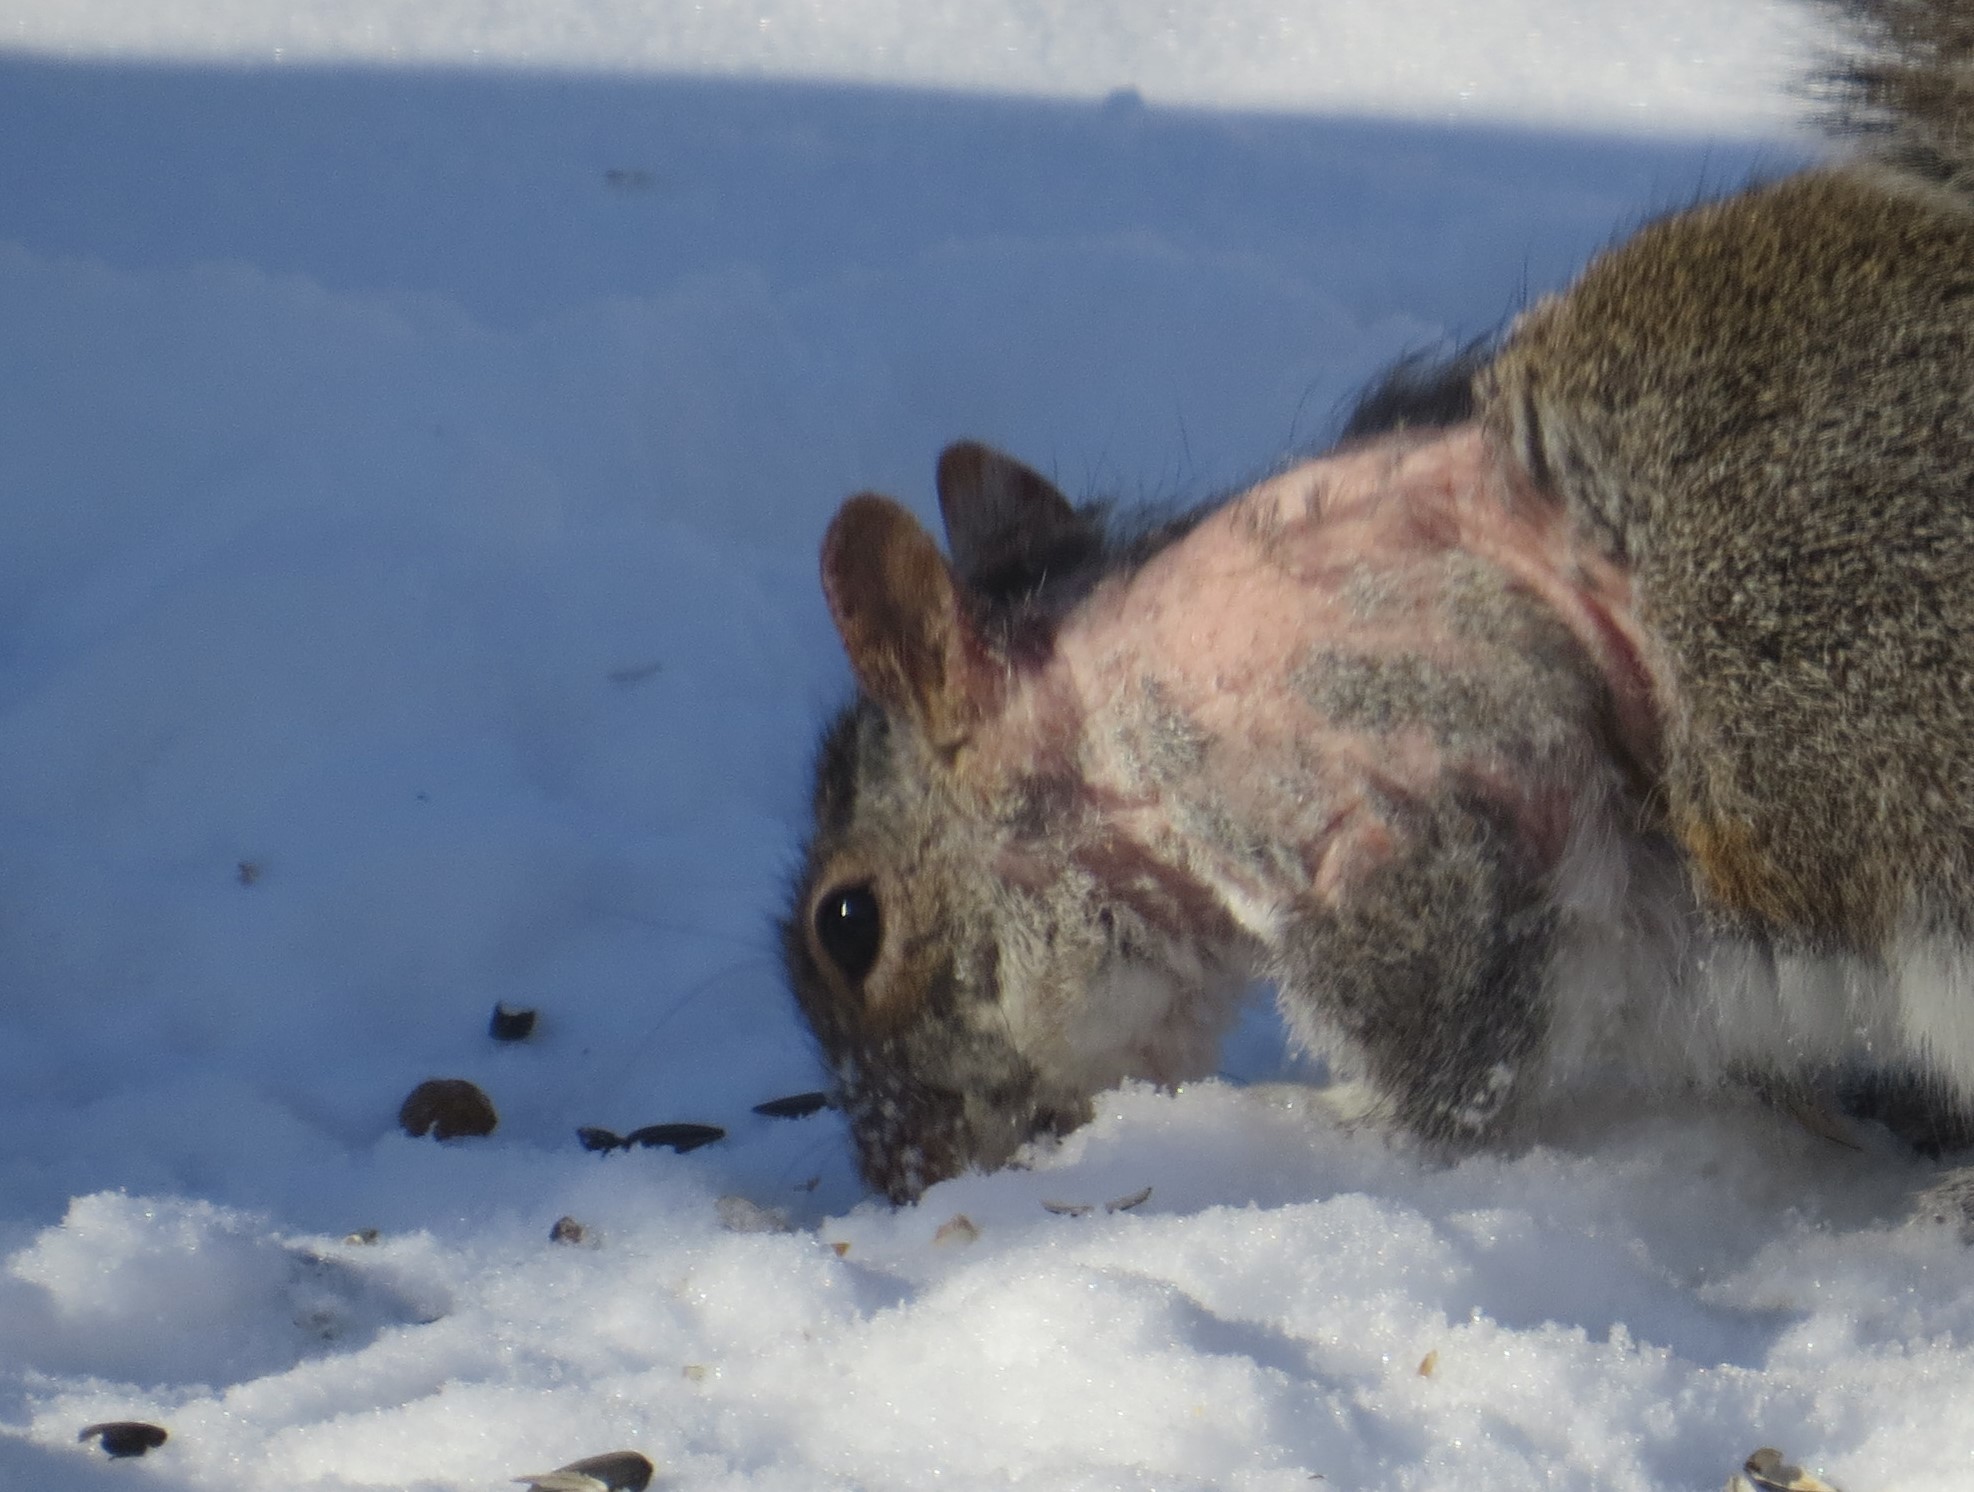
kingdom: Animalia
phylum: Arthropoda
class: Arachnida
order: Sarcoptiformes
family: Sarcoptidae
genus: Notoedres
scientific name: Notoedres centrifera
